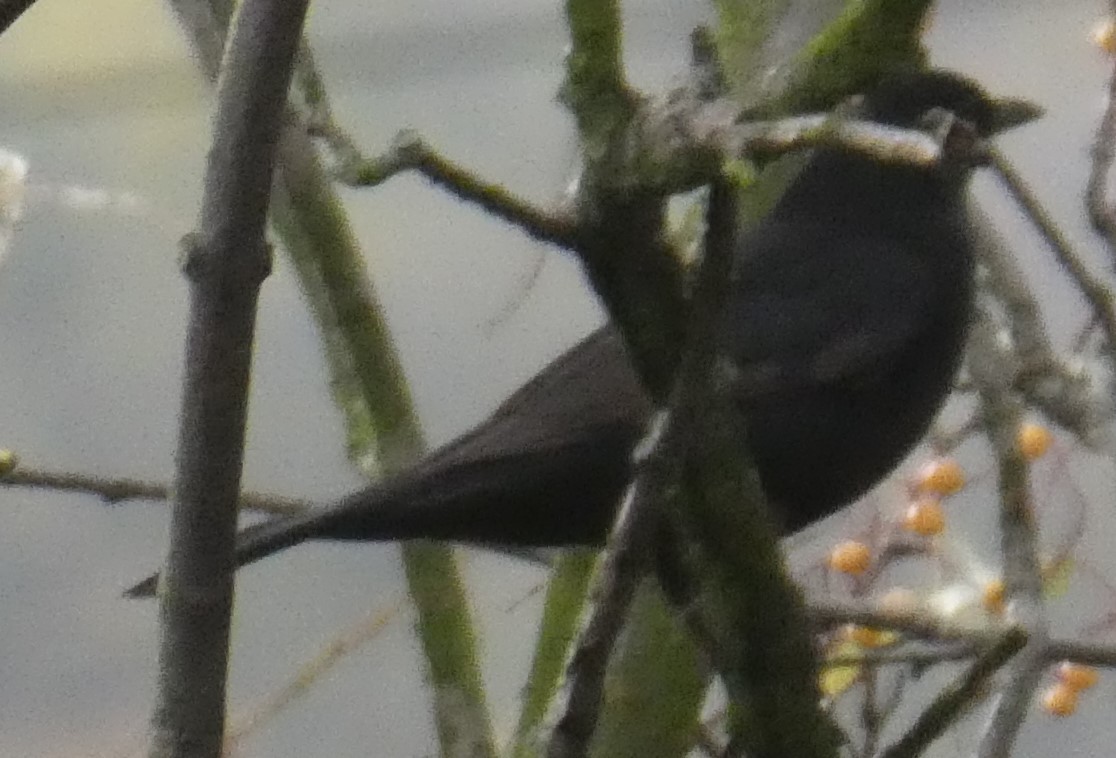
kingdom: Animalia
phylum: Chordata
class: Aves
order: Passeriformes
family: Turdidae
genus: Turdus
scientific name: Turdus merula
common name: Common blackbird
